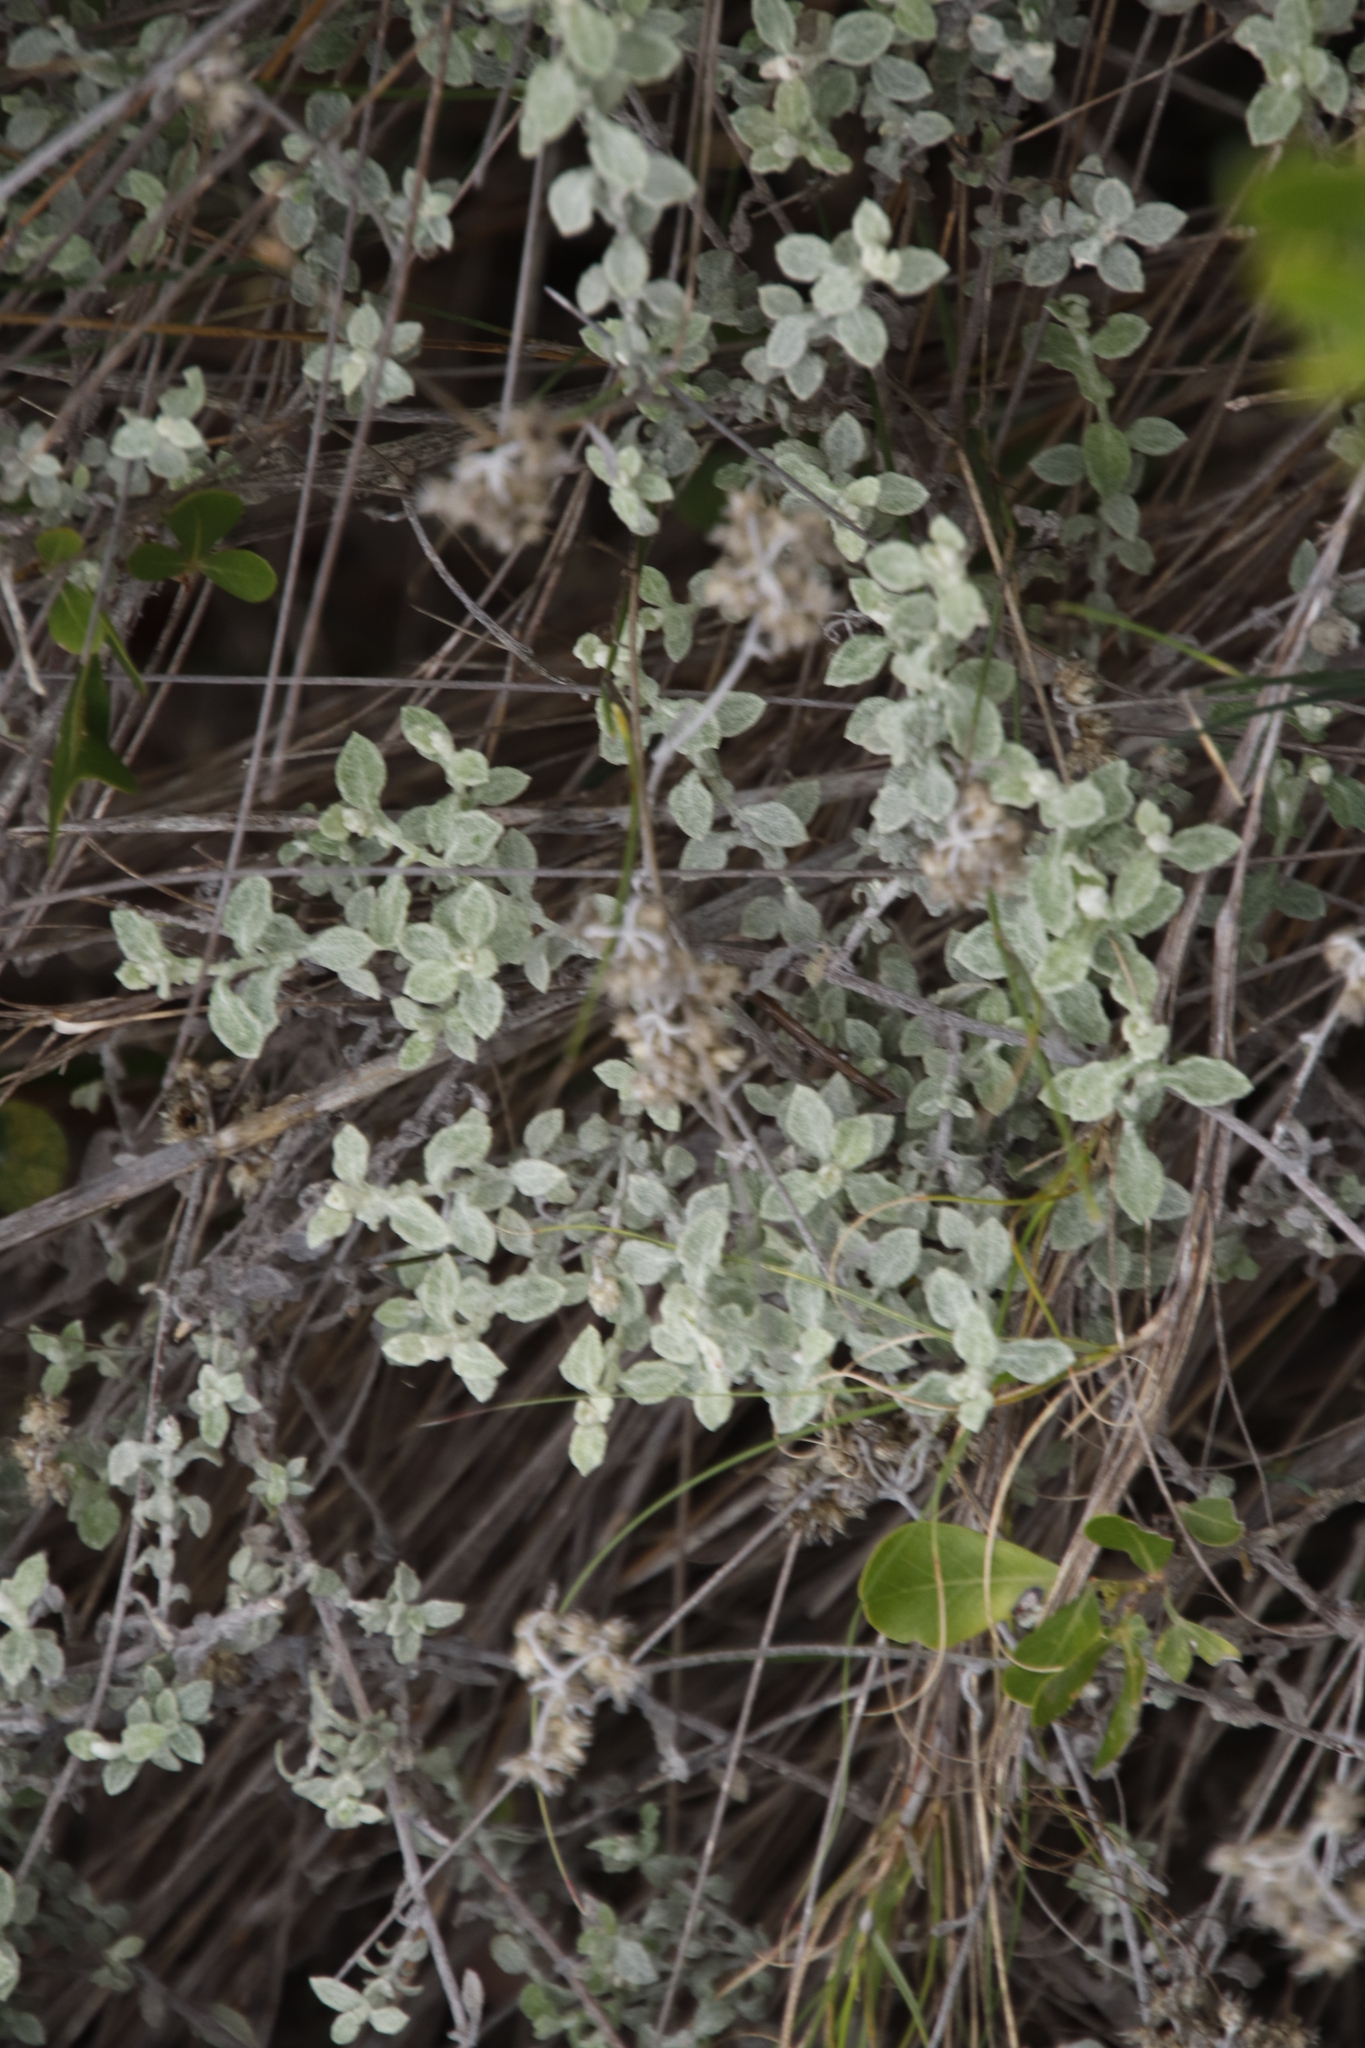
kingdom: Plantae
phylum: Tracheophyta
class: Magnoliopsida
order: Asterales
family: Asteraceae
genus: Helichrysum
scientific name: Helichrysum pandurifolium
